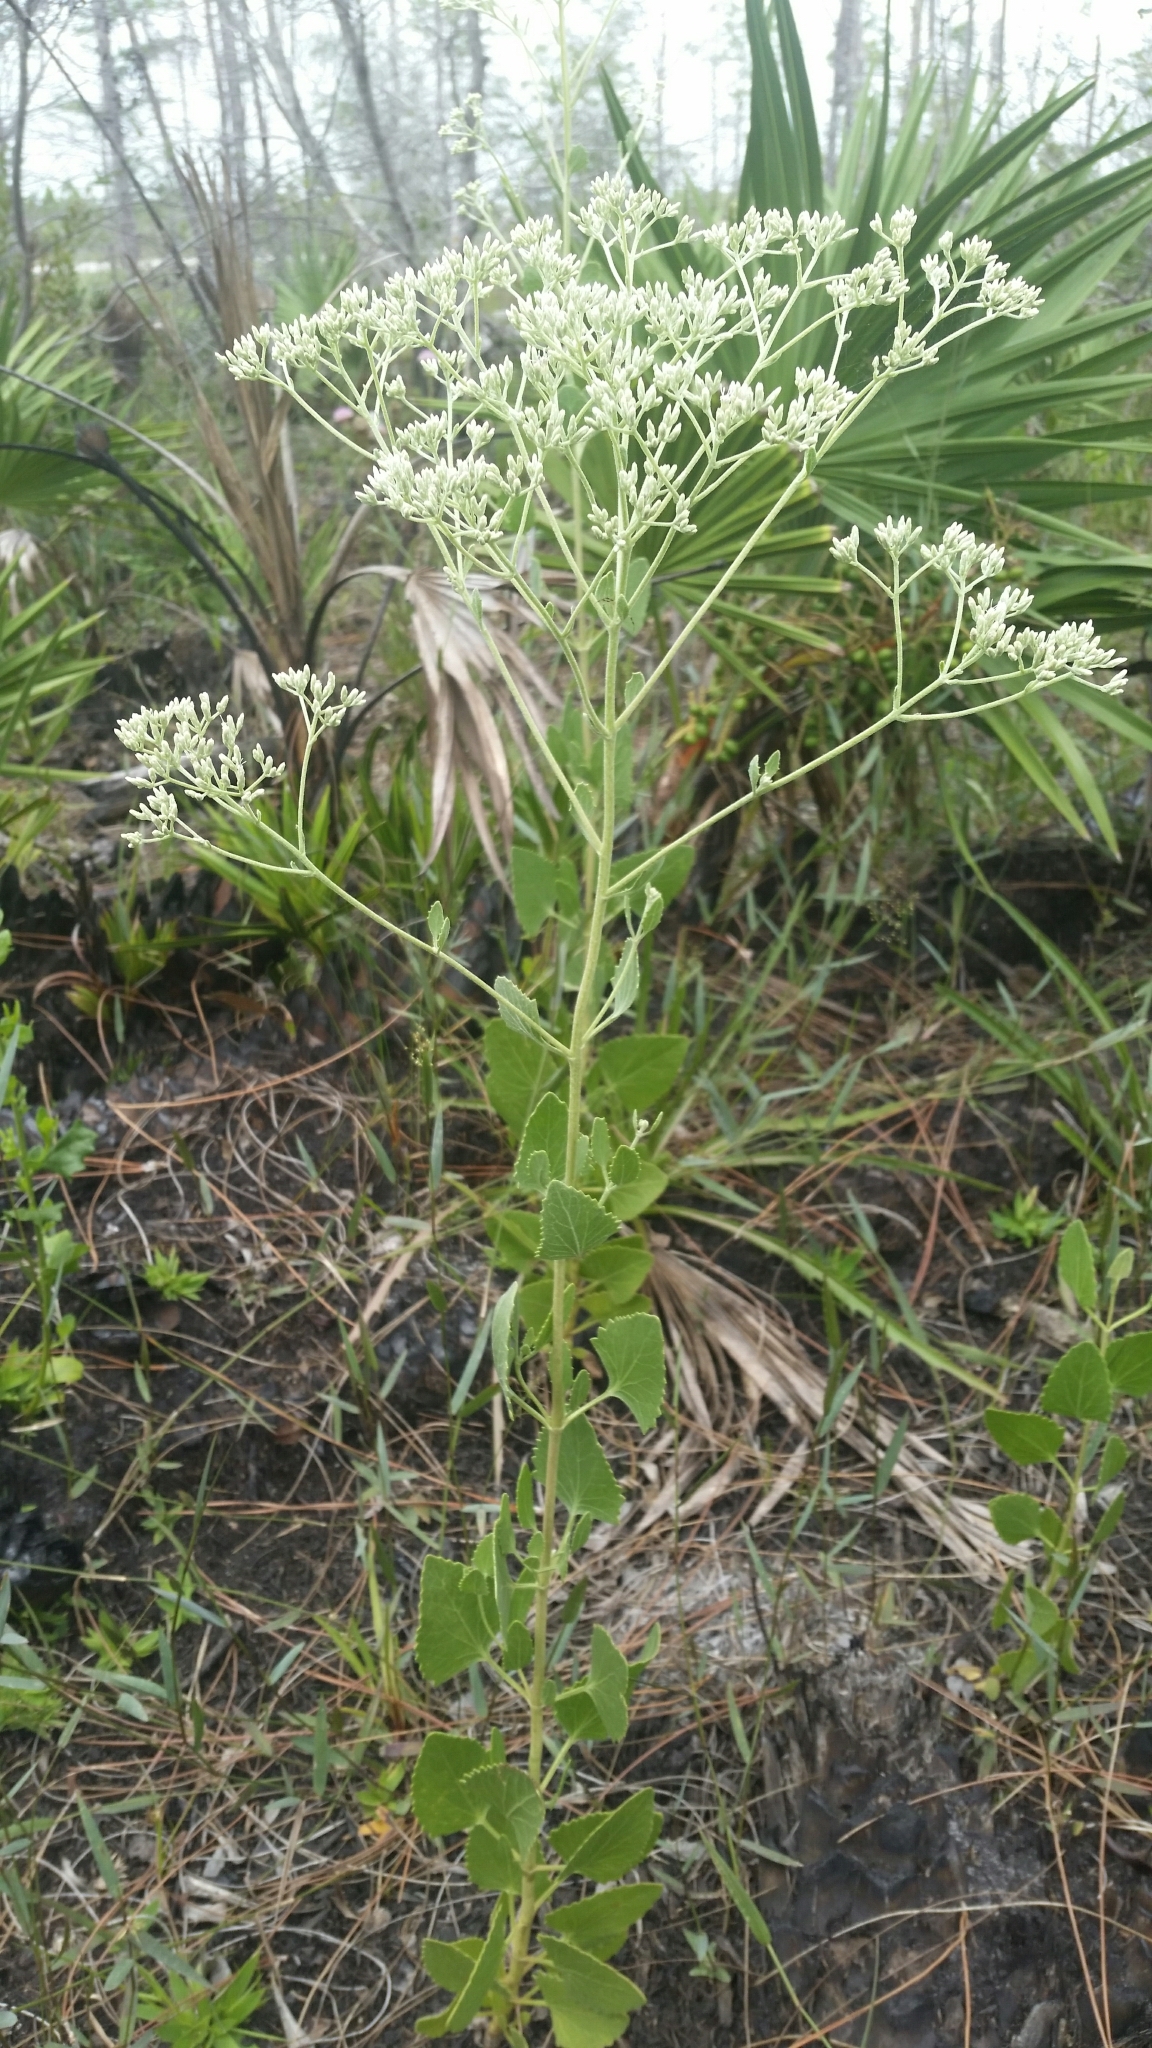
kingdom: Plantae
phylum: Tracheophyta
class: Magnoliopsida
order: Asterales
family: Asteraceae
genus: Eupatorium
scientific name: Eupatorium mikanioides
